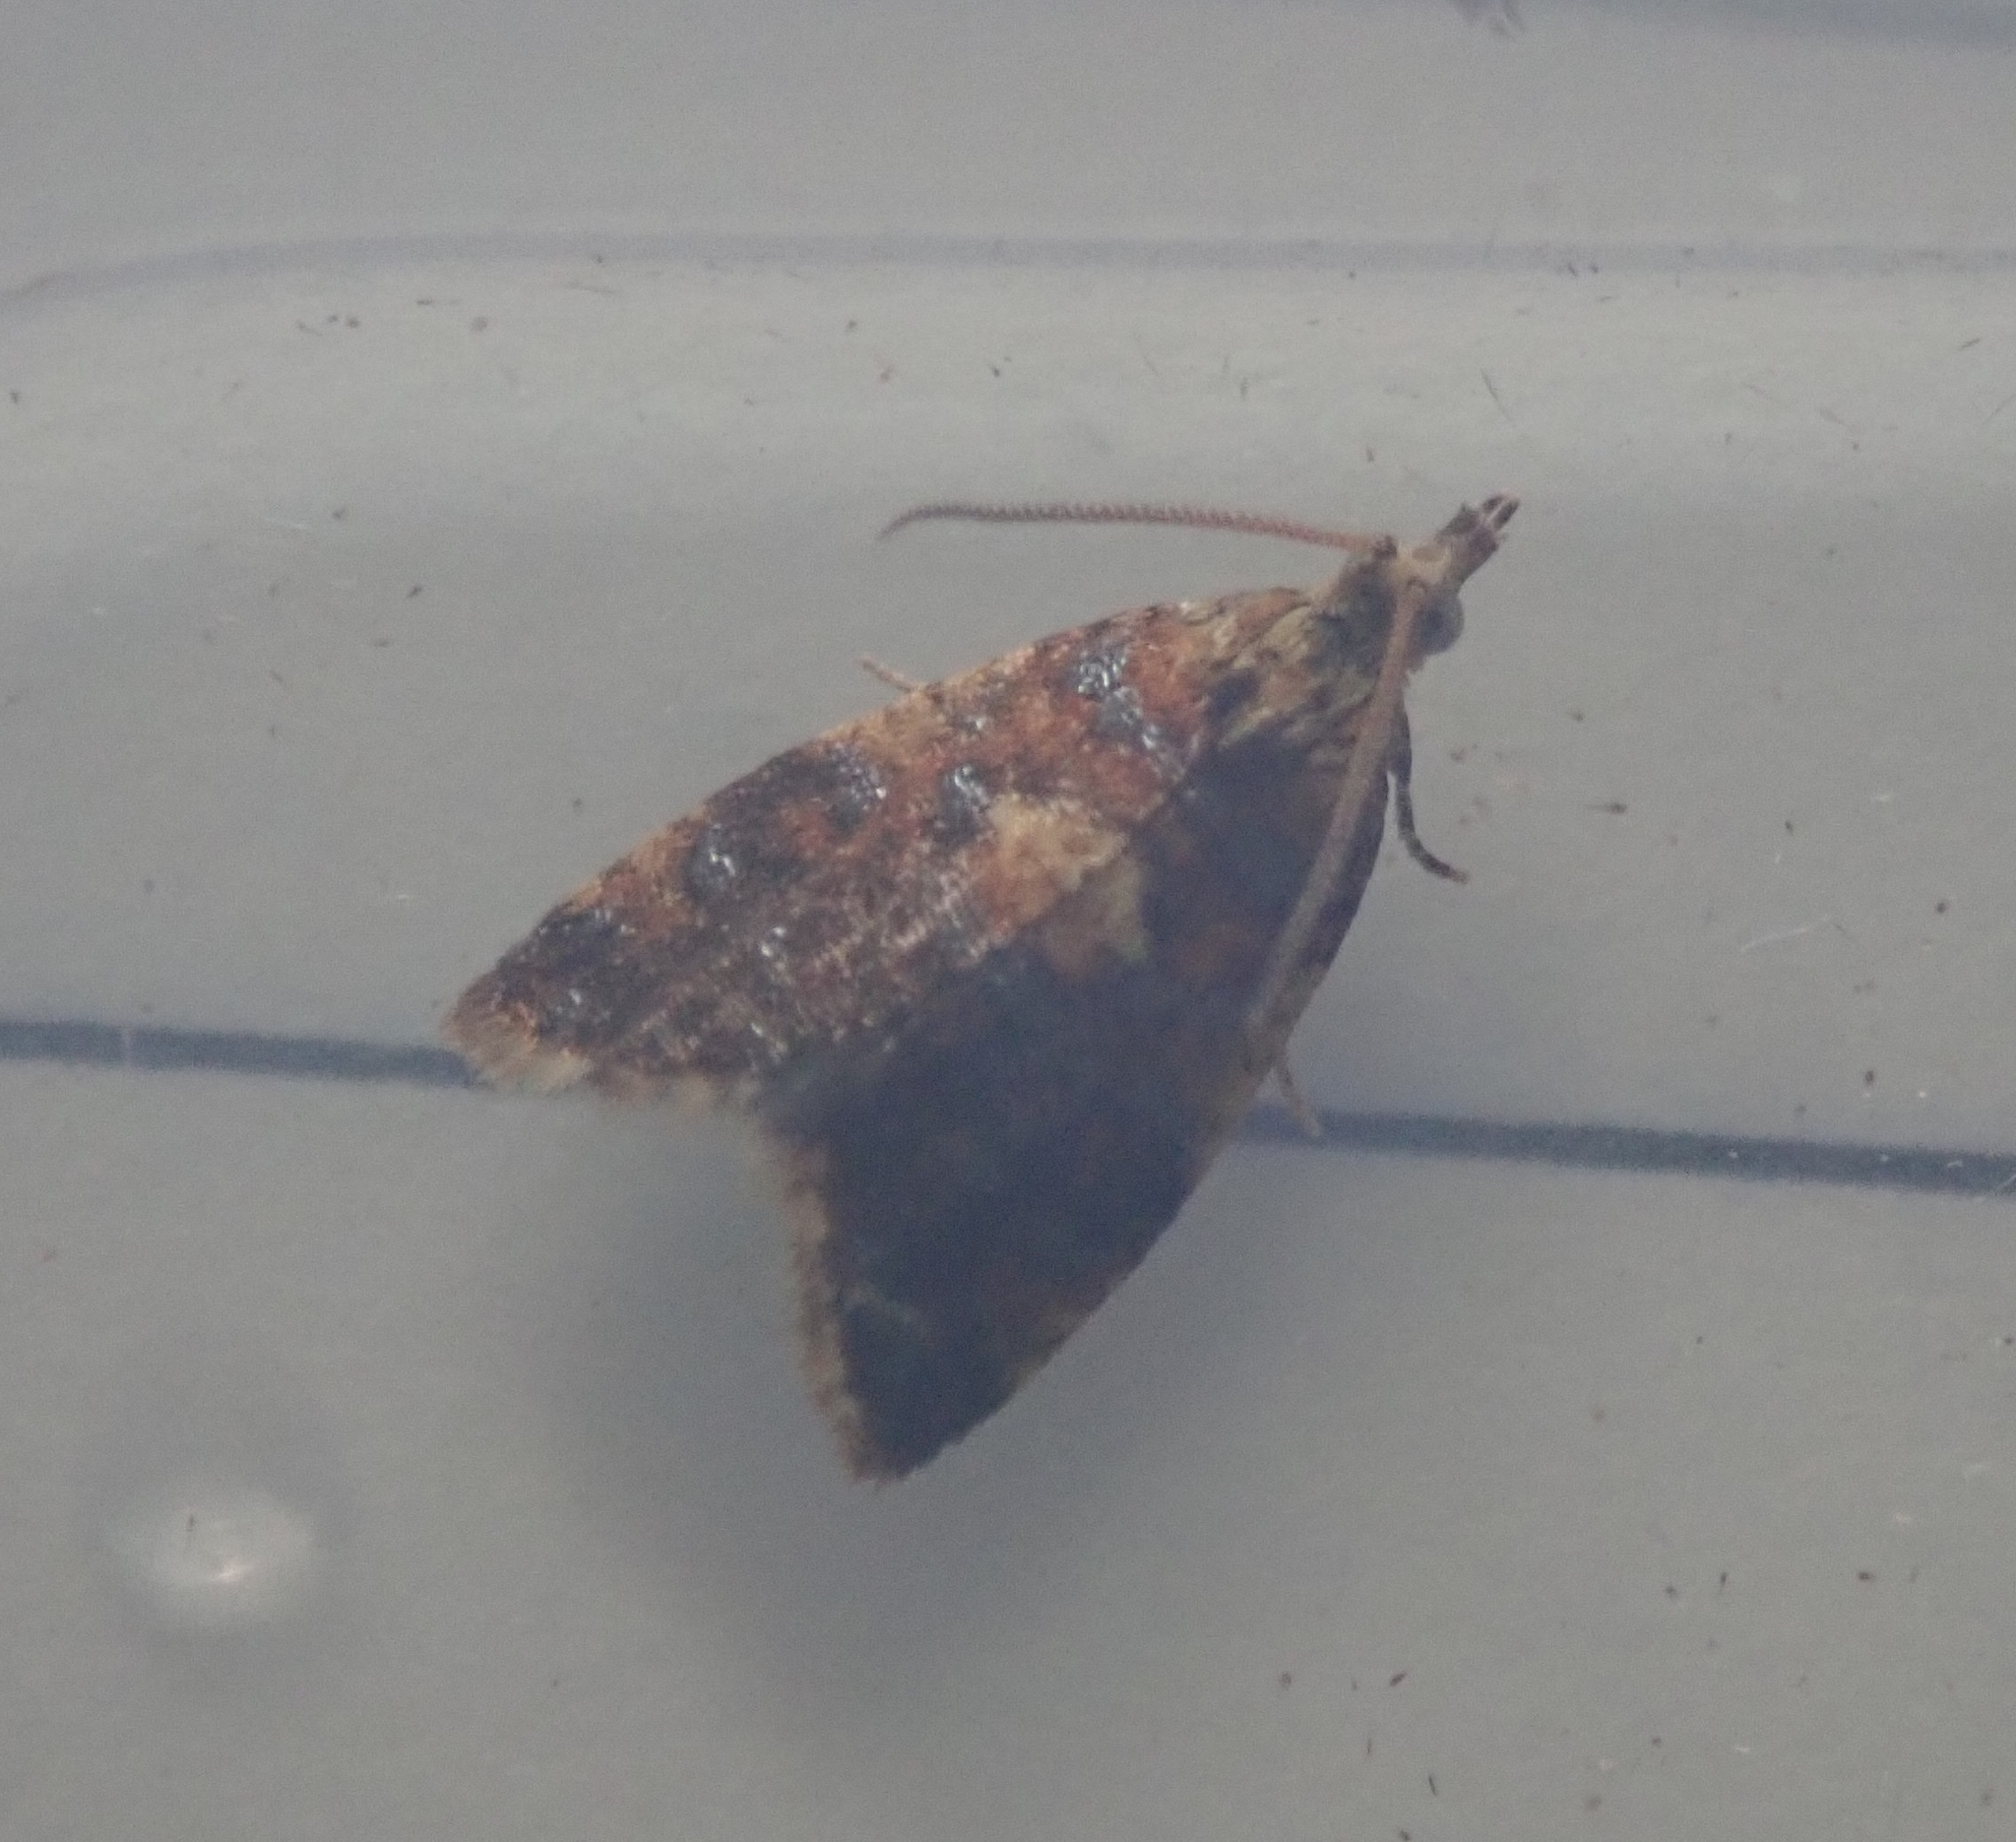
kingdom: Animalia
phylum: Arthropoda
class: Insecta
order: Lepidoptera
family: Tortricidae
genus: Pseudargyrotoza
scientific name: Pseudargyrotoza conwagana
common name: Yellow-spot twist
